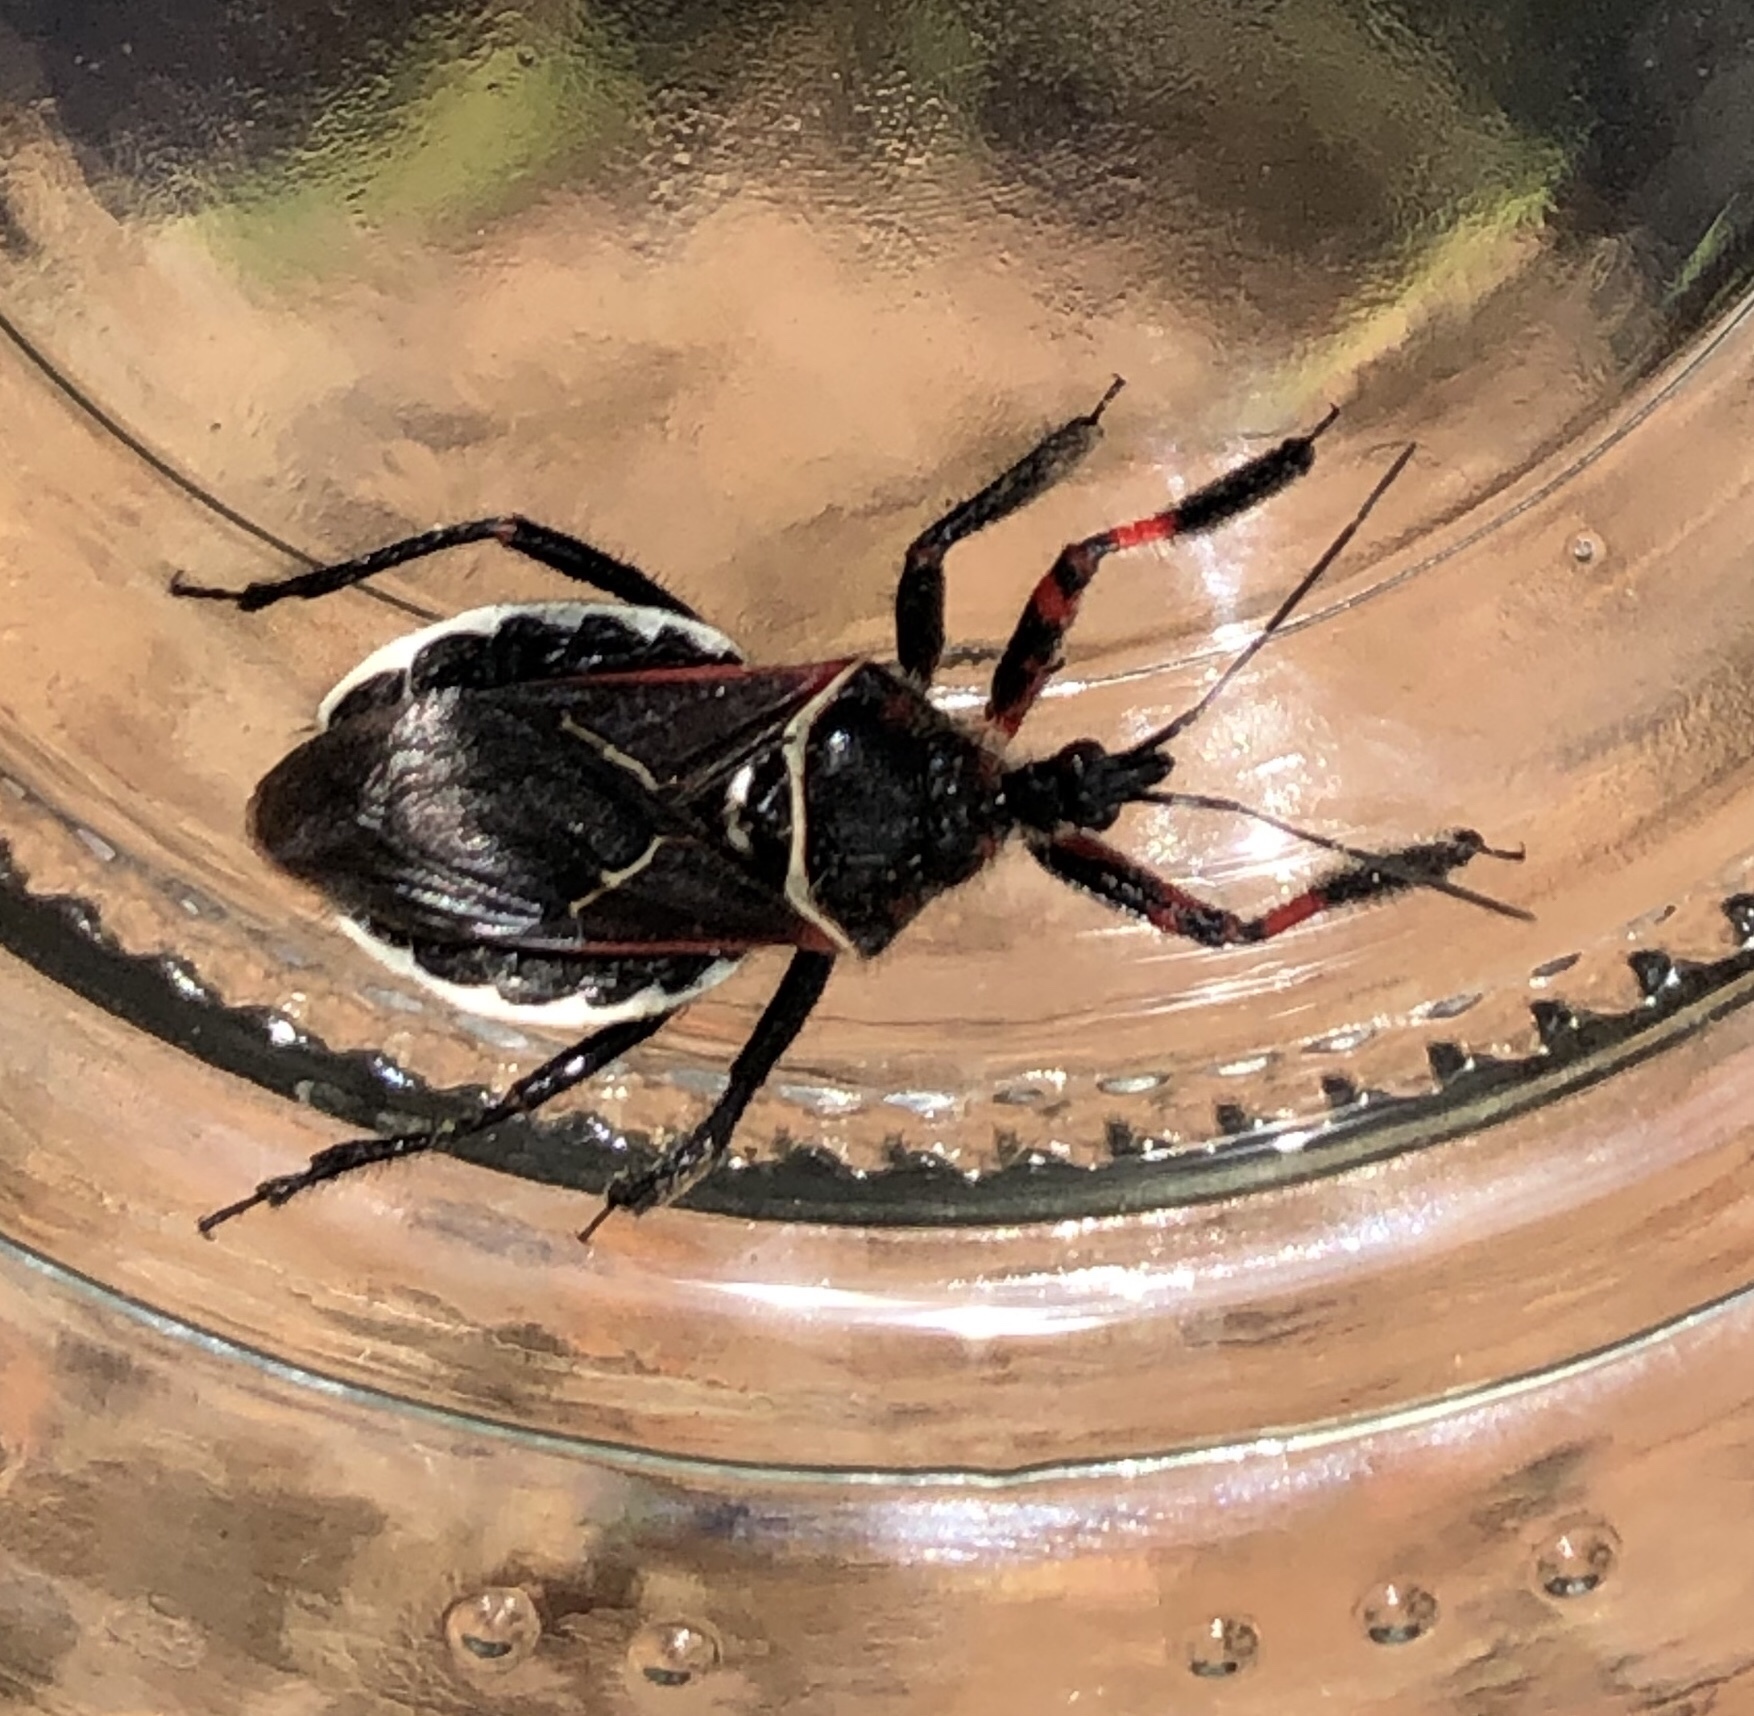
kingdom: Animalia
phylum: Arthropoda
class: Insecta
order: Hemiptera
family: Reduviidae
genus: Apiomerus
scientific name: Apiomerus californicus
